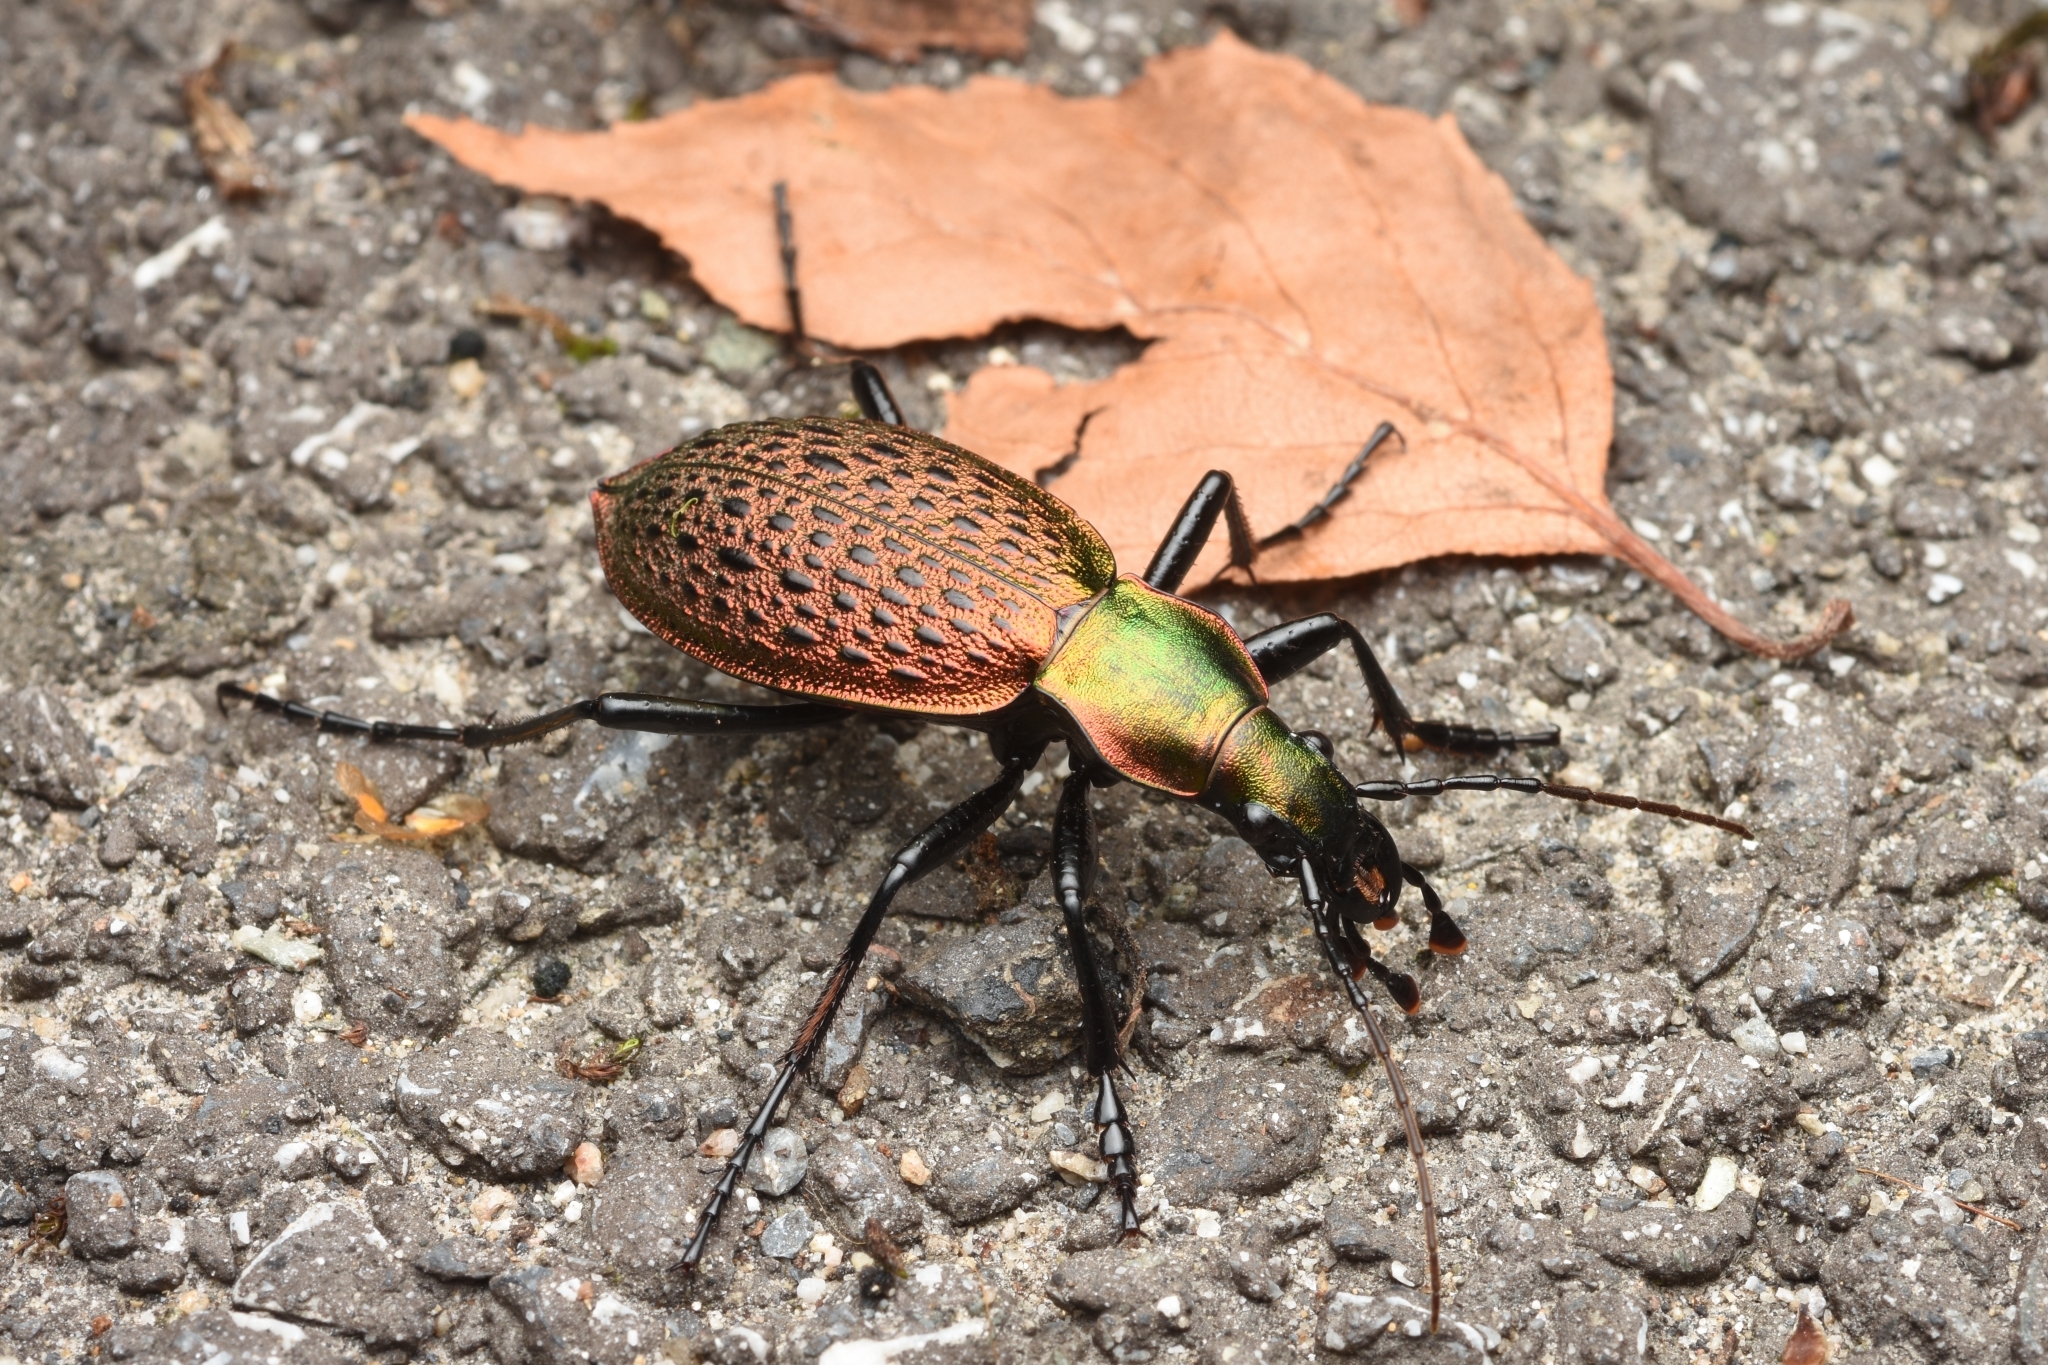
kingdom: Animalia
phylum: Arthropoda
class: Insecta
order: Coleoptera
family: Carabidae
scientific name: Carabidae
